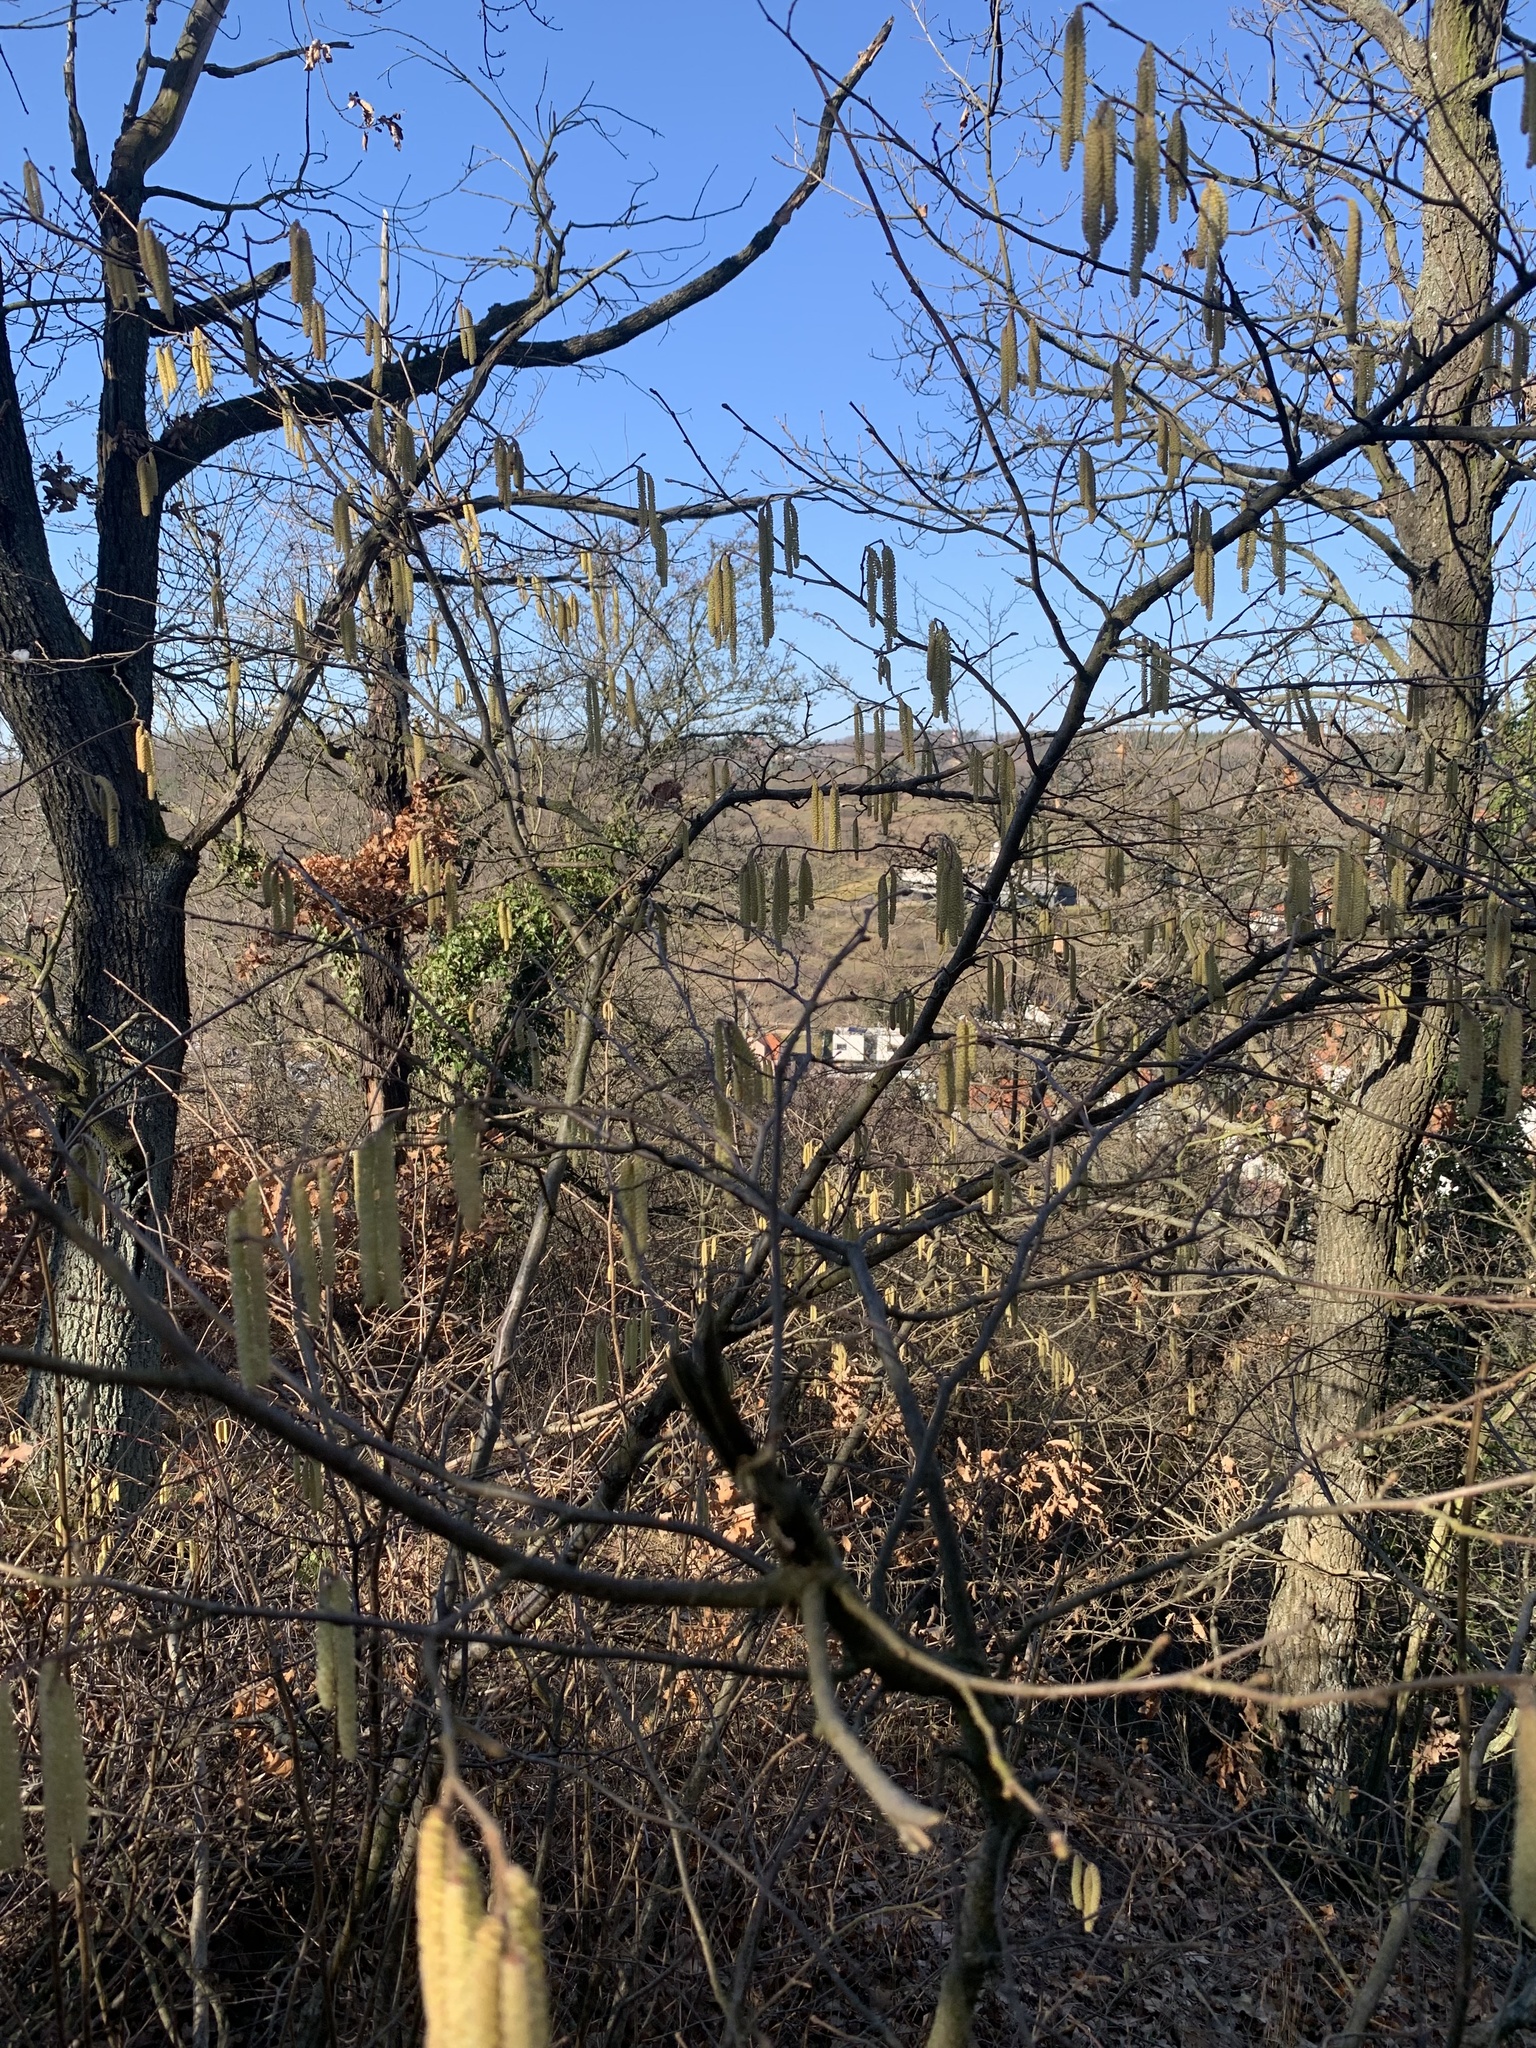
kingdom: Plantae
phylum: Tracheophyta
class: Magnoliopsida
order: Fagales
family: Betulaceae
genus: Corylus
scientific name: Corylus avellana
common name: European hazel
